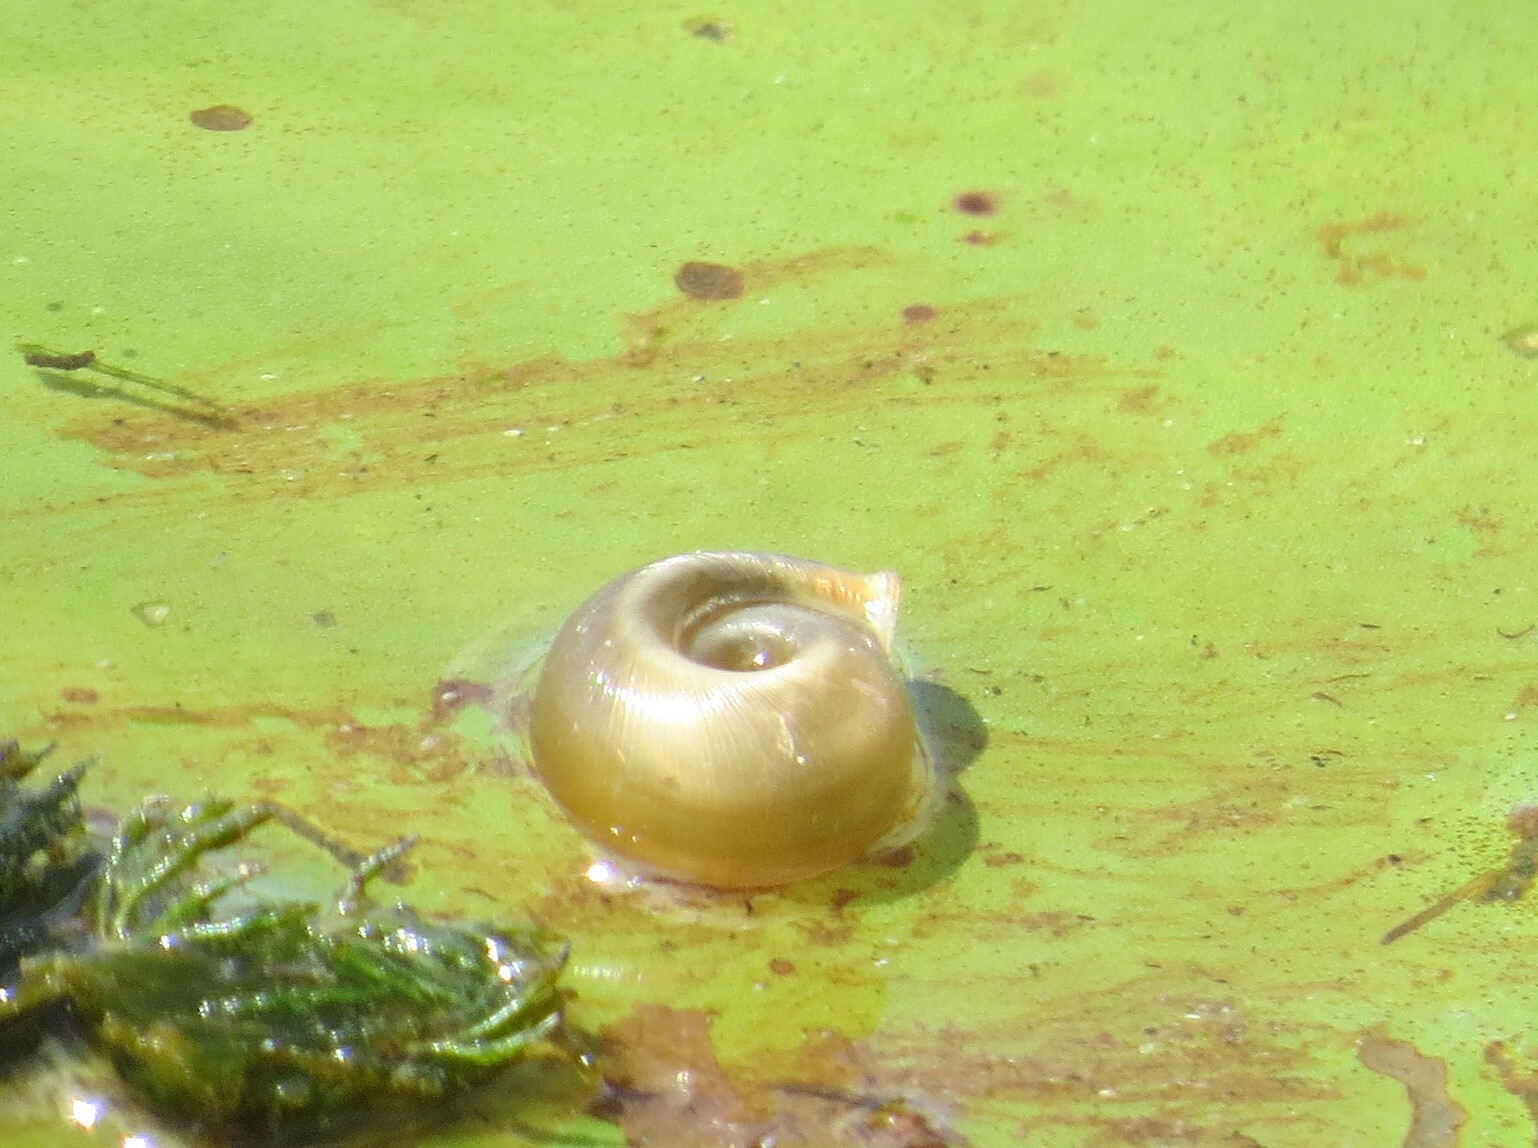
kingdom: Animalia
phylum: Mollusca
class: Gastropoda
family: Planorbidae
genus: Planorbella
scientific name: Planorbella trivolvis
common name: Marsh rams-horn
